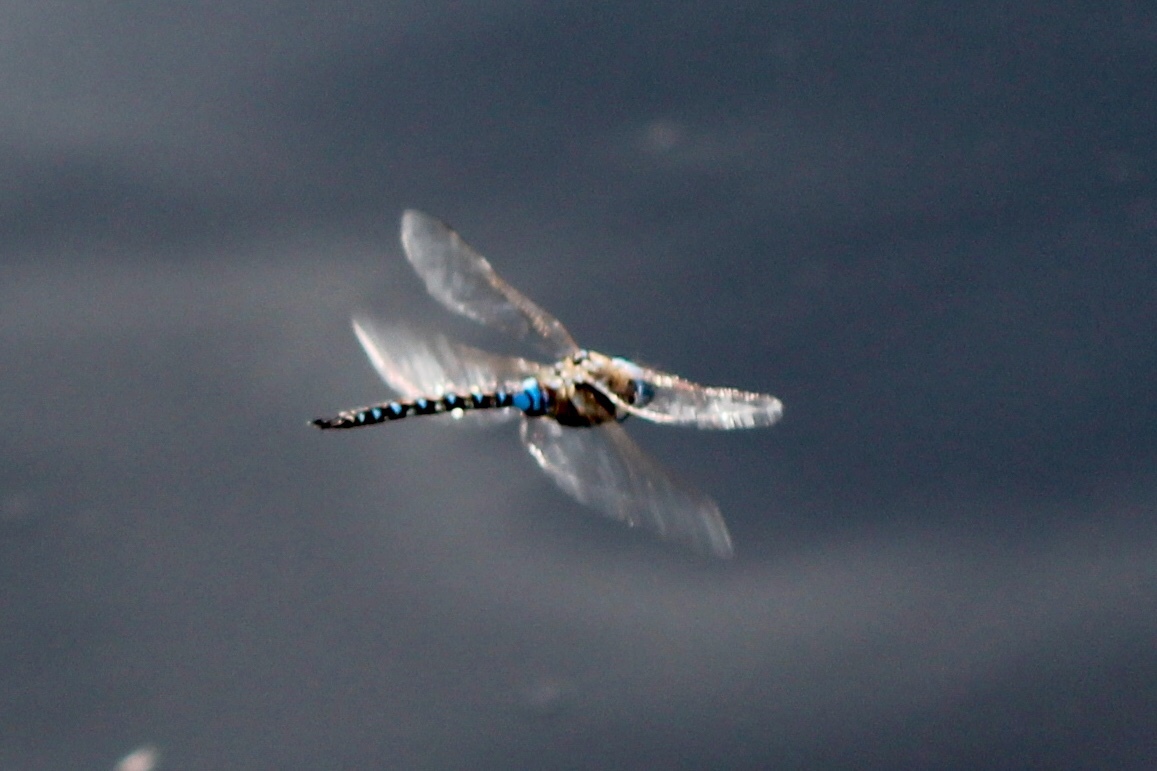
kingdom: Animalia
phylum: Arthropoda
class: Insecta
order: Odonata
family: Aeshnidae
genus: Rhionaeschna
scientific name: Rhionaeschna multicolor
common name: Blue-eyed darner
